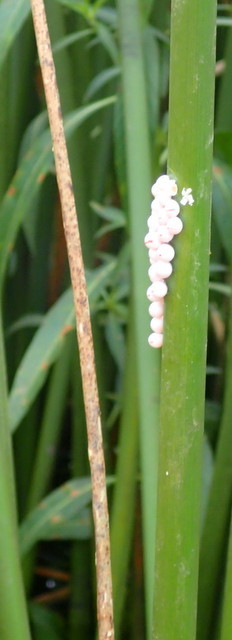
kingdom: Animalia
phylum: Mollusca
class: Gastropoda
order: Architaenioglossa
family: Ampullariidae
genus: Pomacea
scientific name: Pomacea paludosa
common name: Florida applesnail
